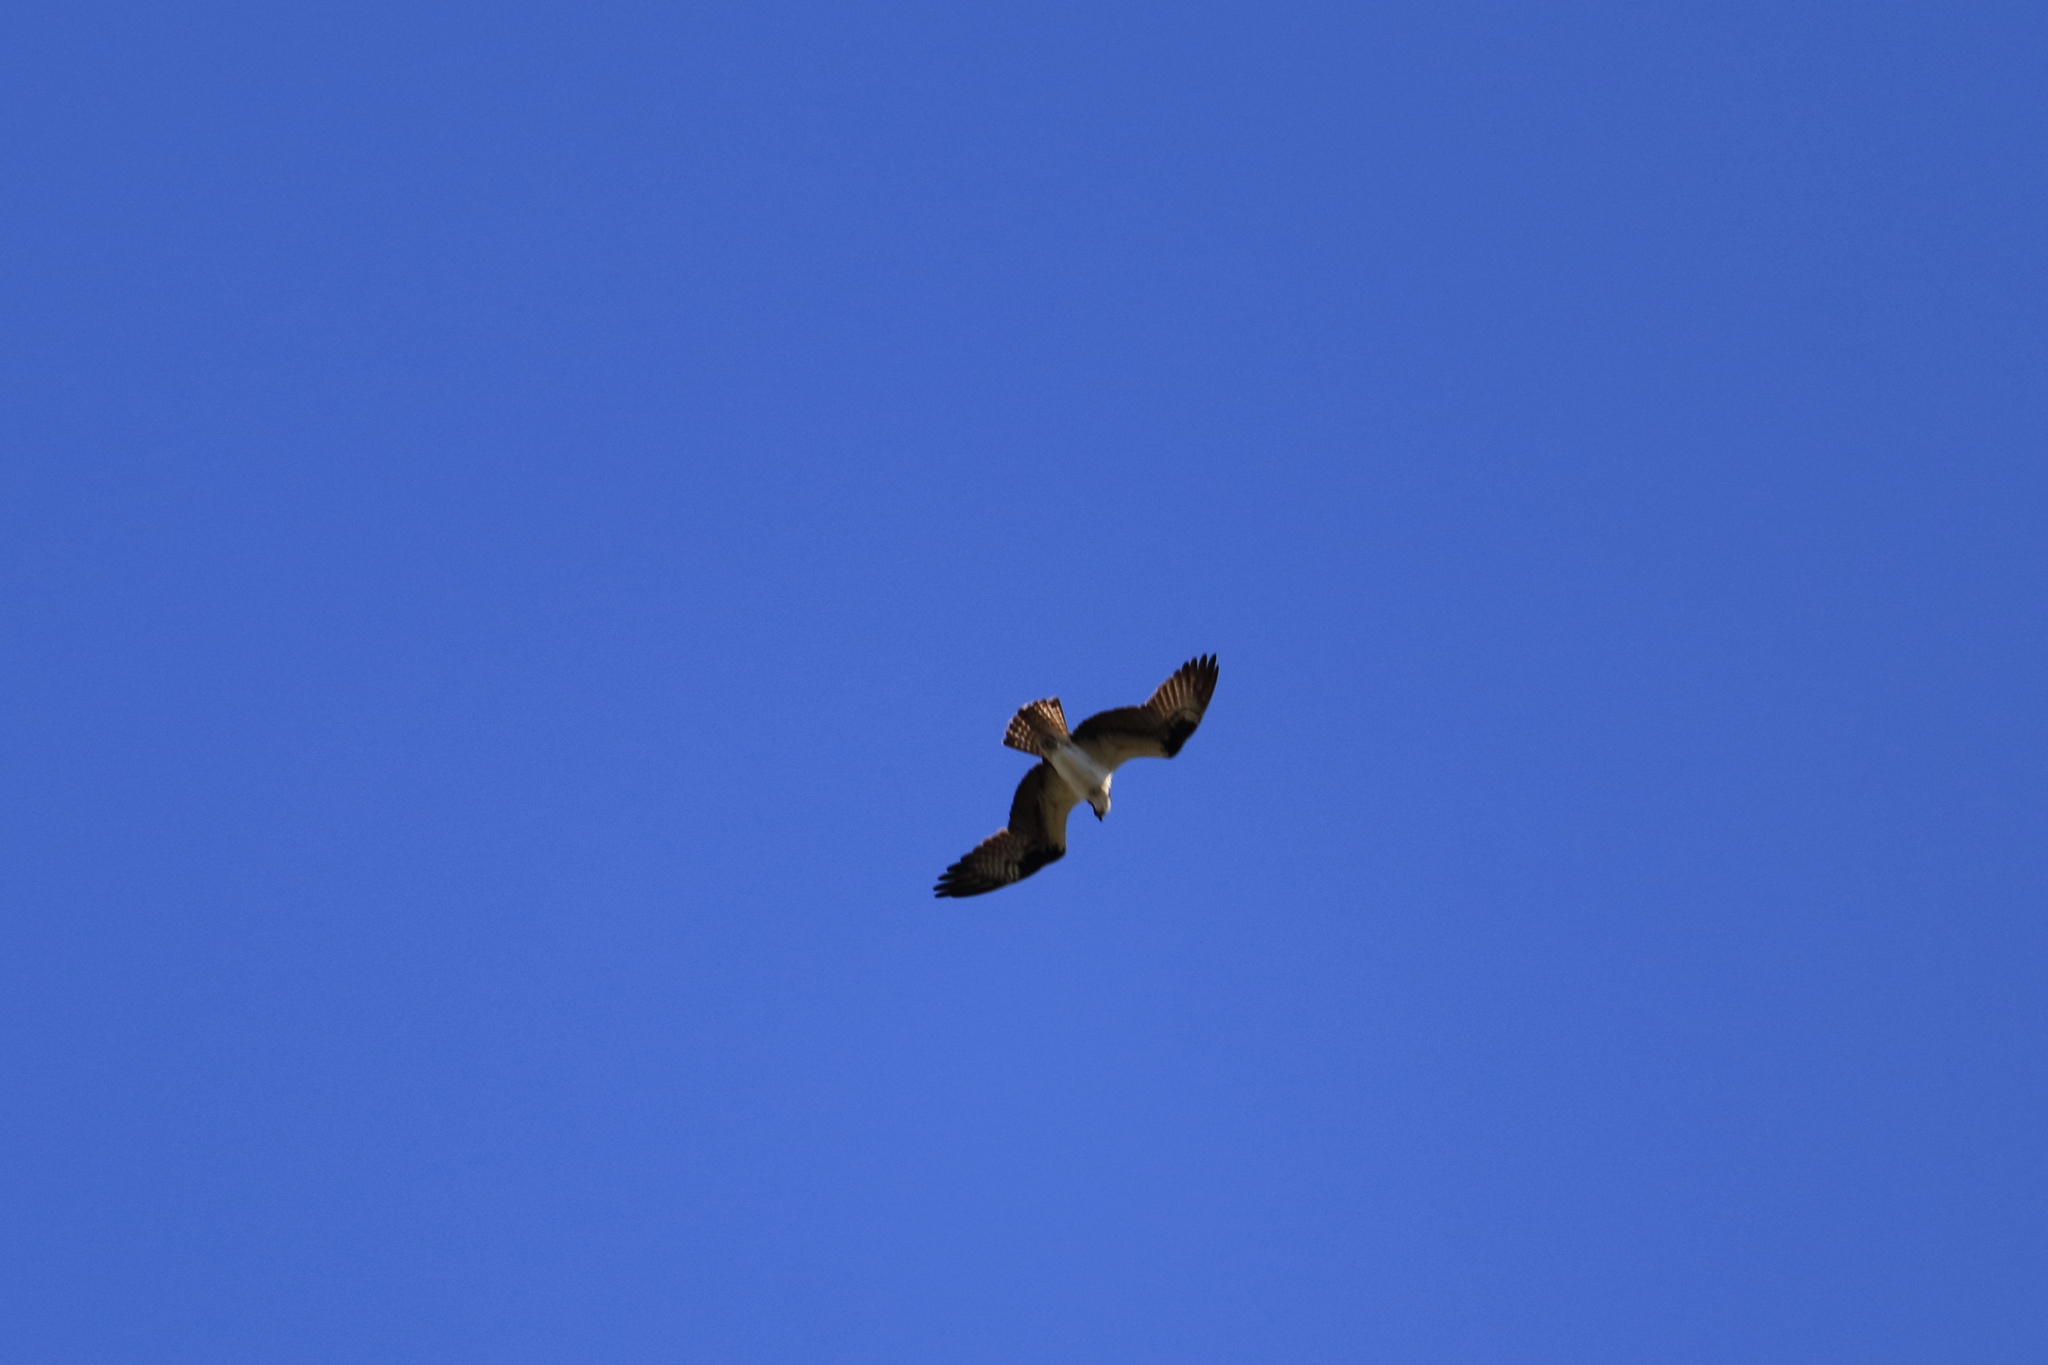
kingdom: Animalia
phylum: Chordata
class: Aves
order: Accipitriformes
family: Pandionidae
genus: Pandion
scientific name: Pandion haliaetus
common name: Osprey
